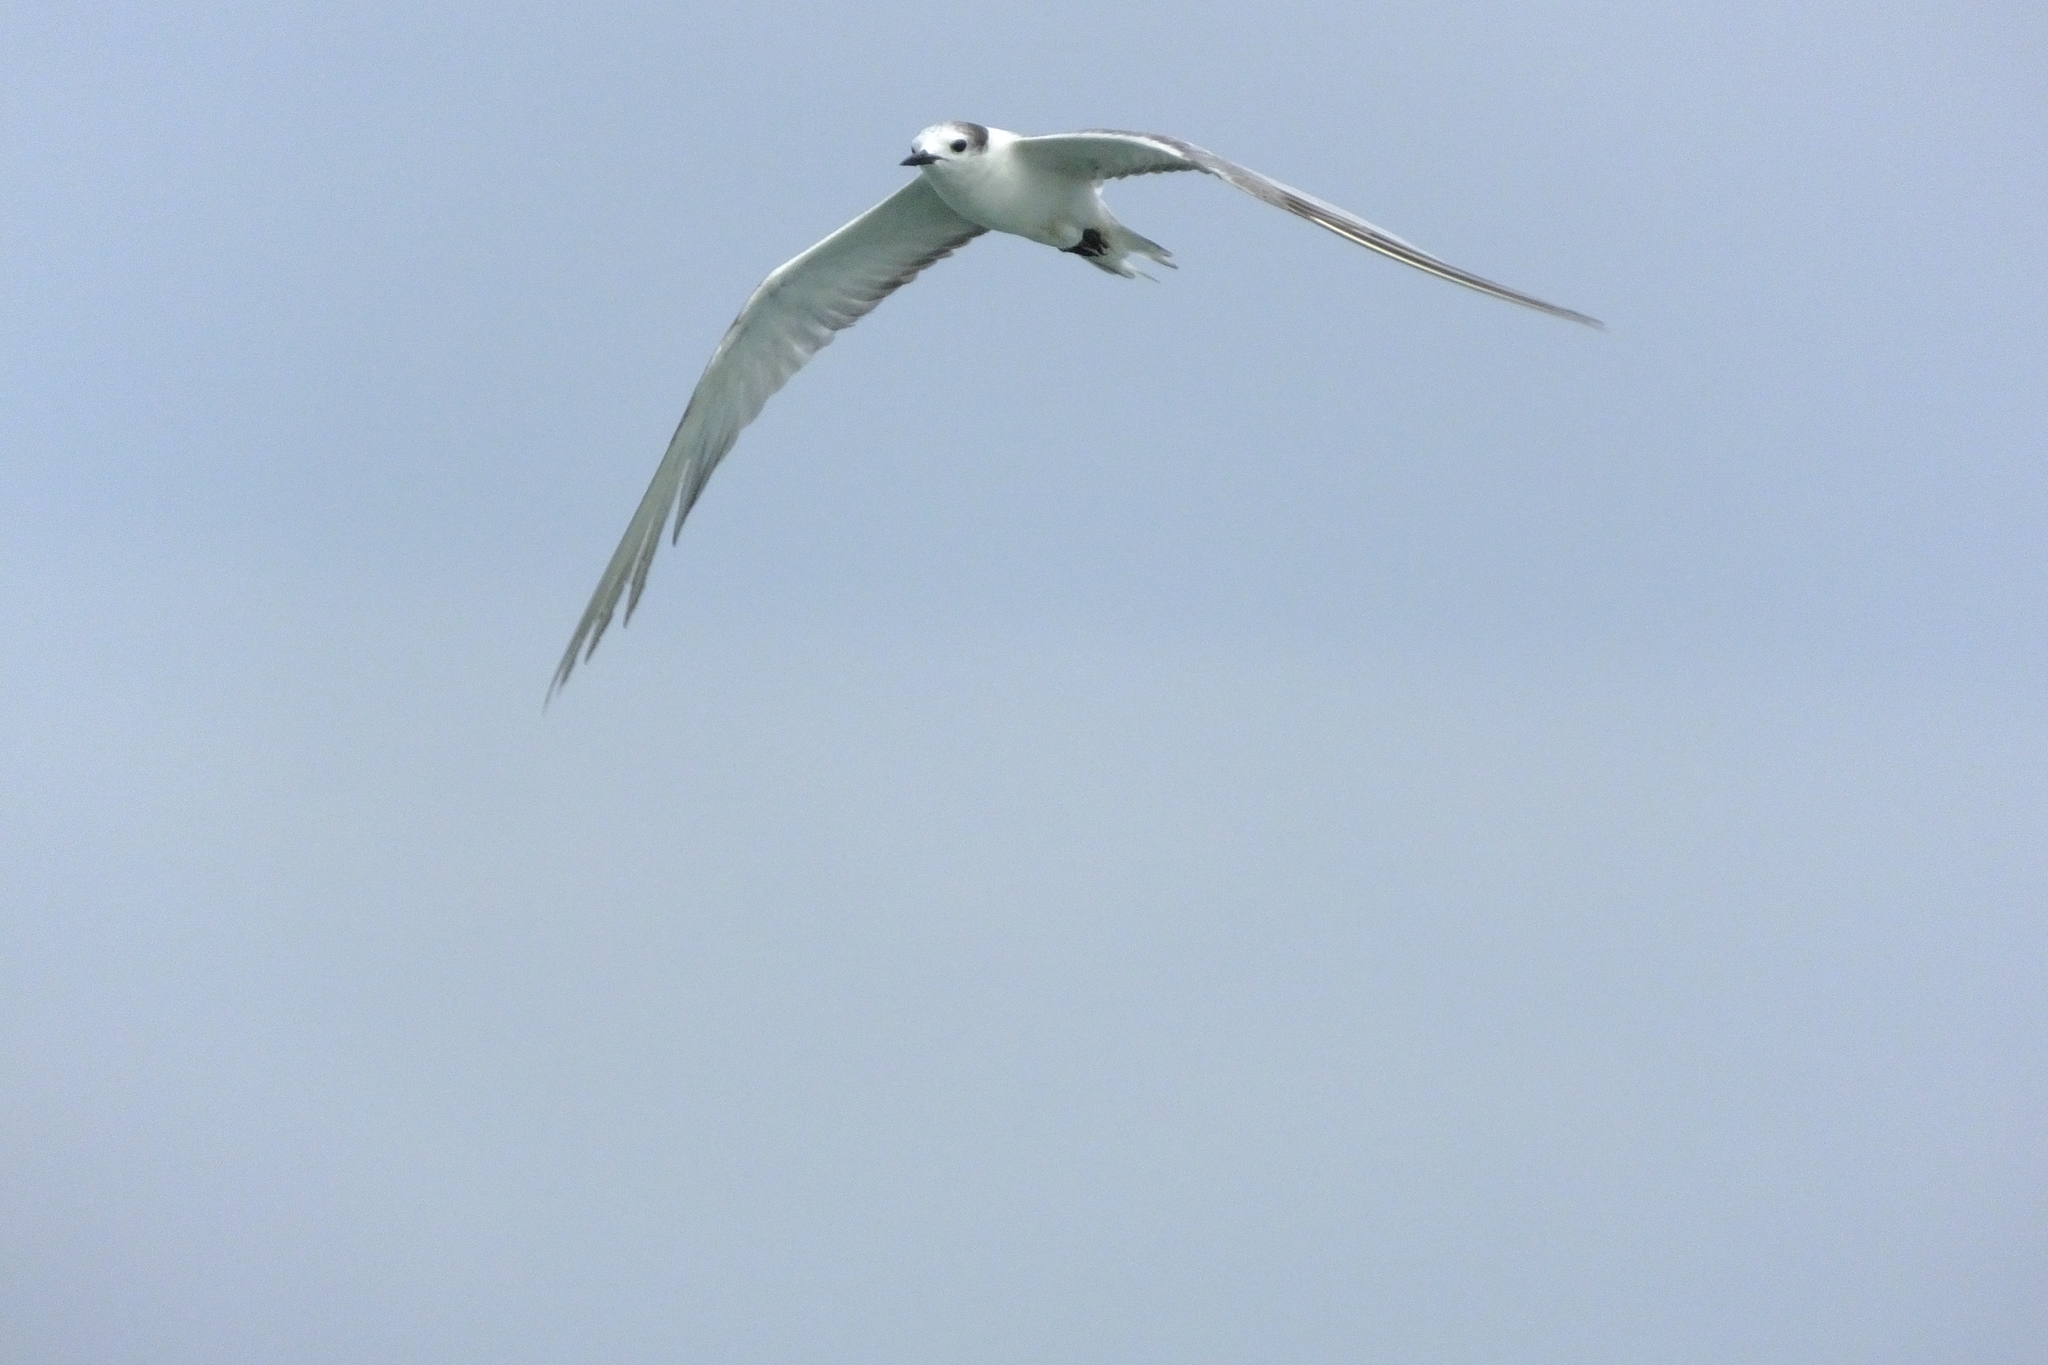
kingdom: Animalia
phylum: Chordata
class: Aves
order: Charadriiformes
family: Laridae
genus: Onychoprion
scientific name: Onychoprion aleuticus
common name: Aleutian tern
